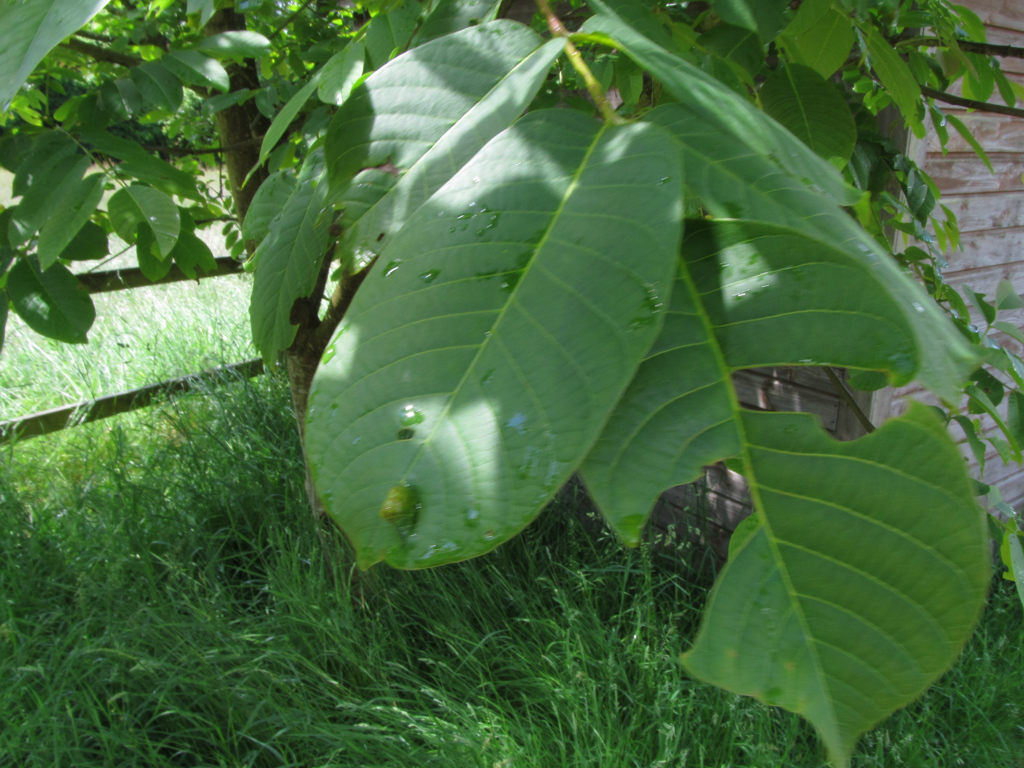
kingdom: Plantae
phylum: Tracheophyta
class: Magnoliopsida
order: Fagales
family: Juglandaceae
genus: Juglans
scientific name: Juglans regia
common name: Walnut
